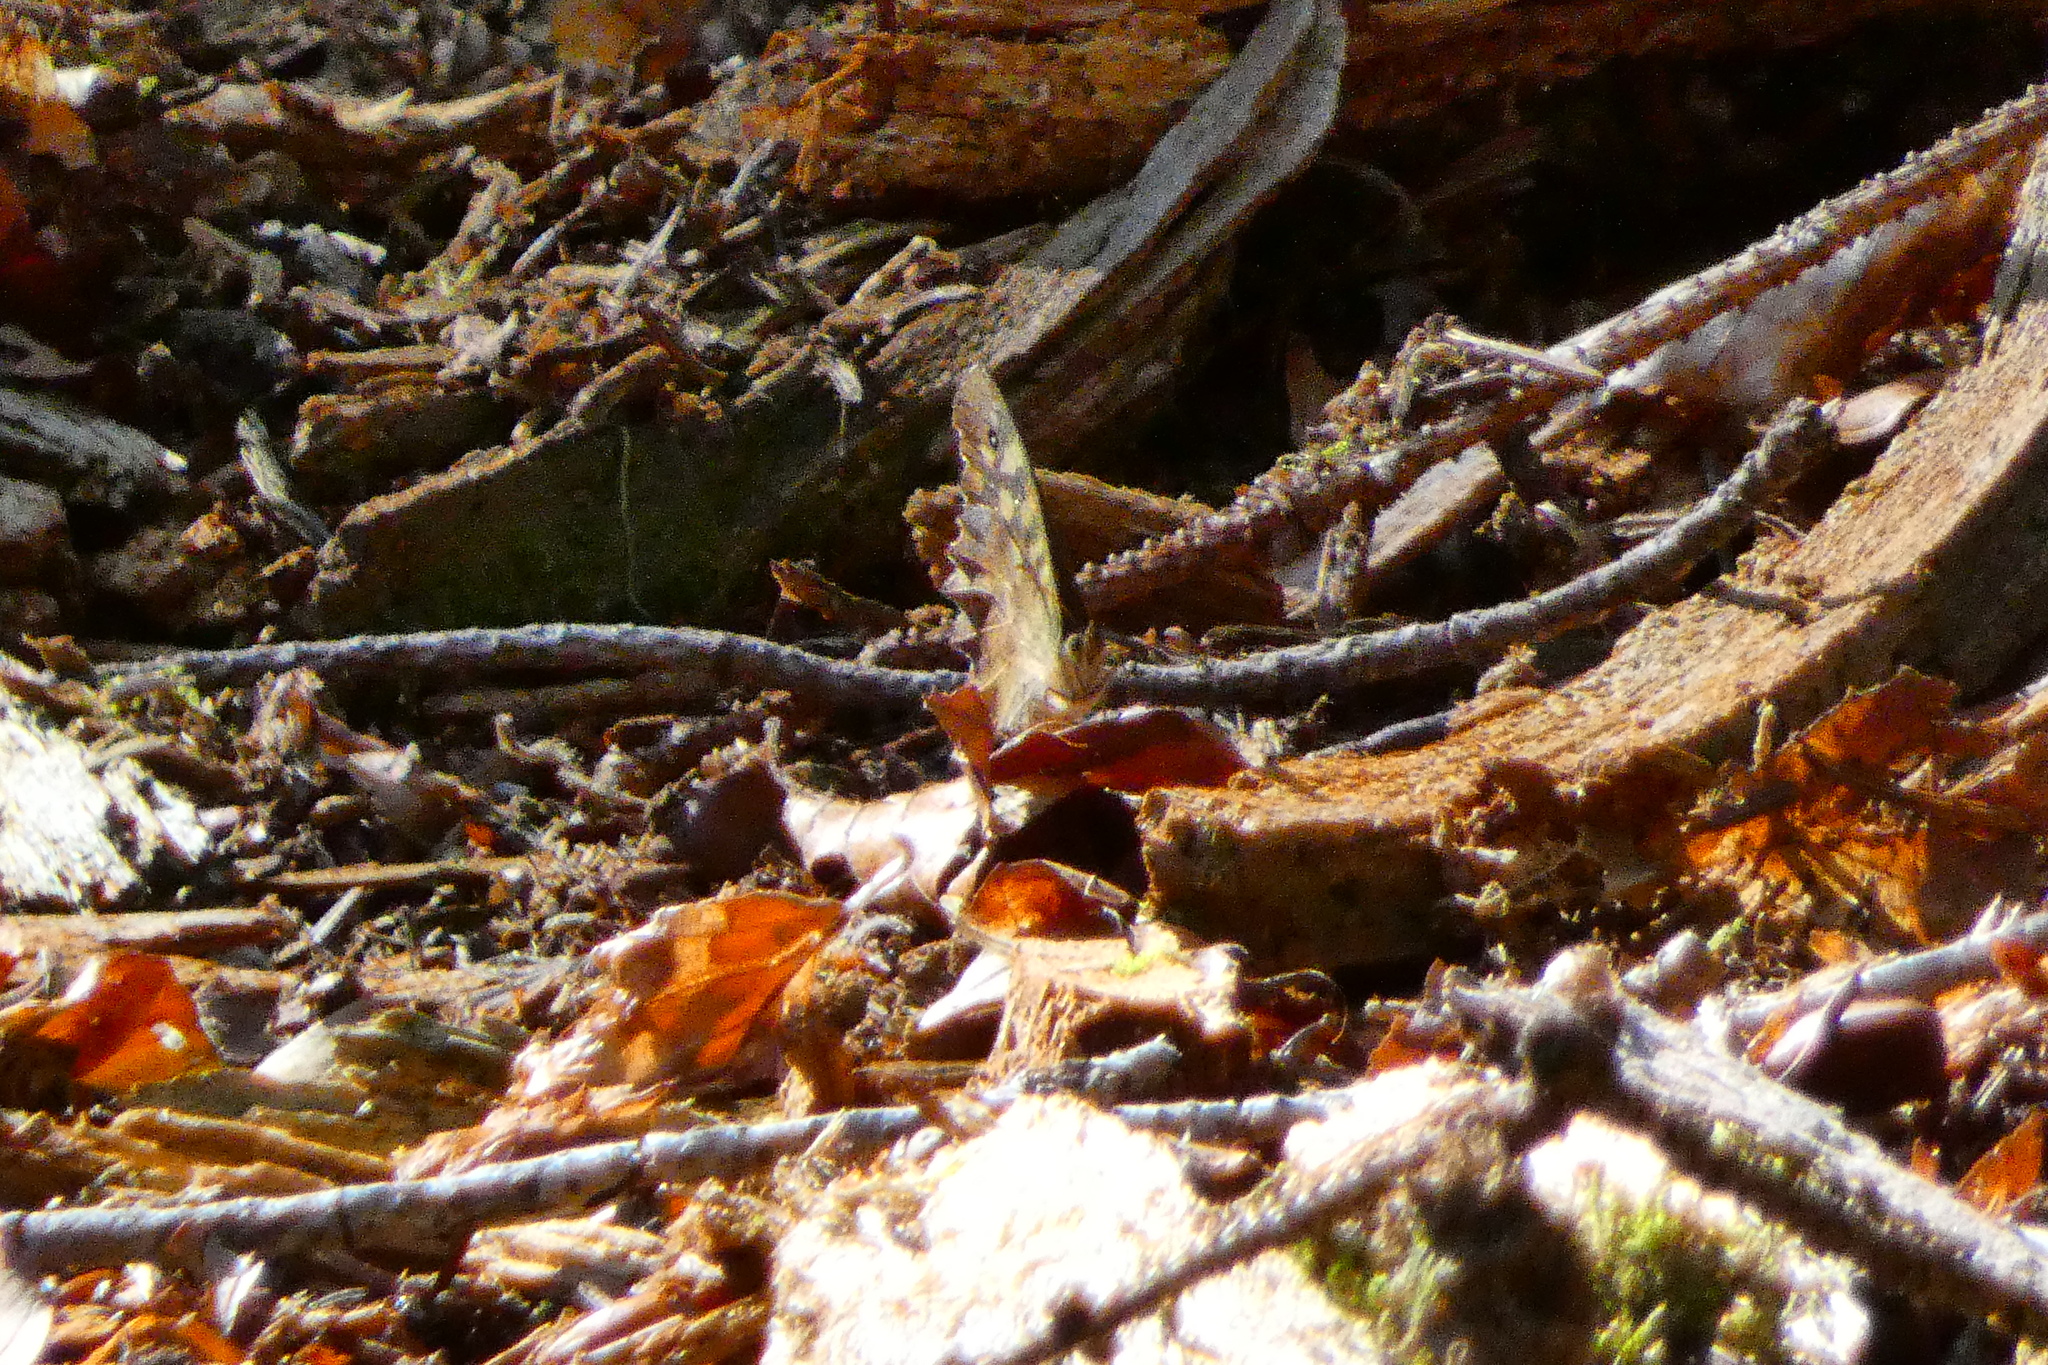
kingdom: Animalia
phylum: Arthropoda
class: Insecta
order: Lepidoptera
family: Nymphalidae
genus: Pararge
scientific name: Pararge aegeria
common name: Speckled wood
